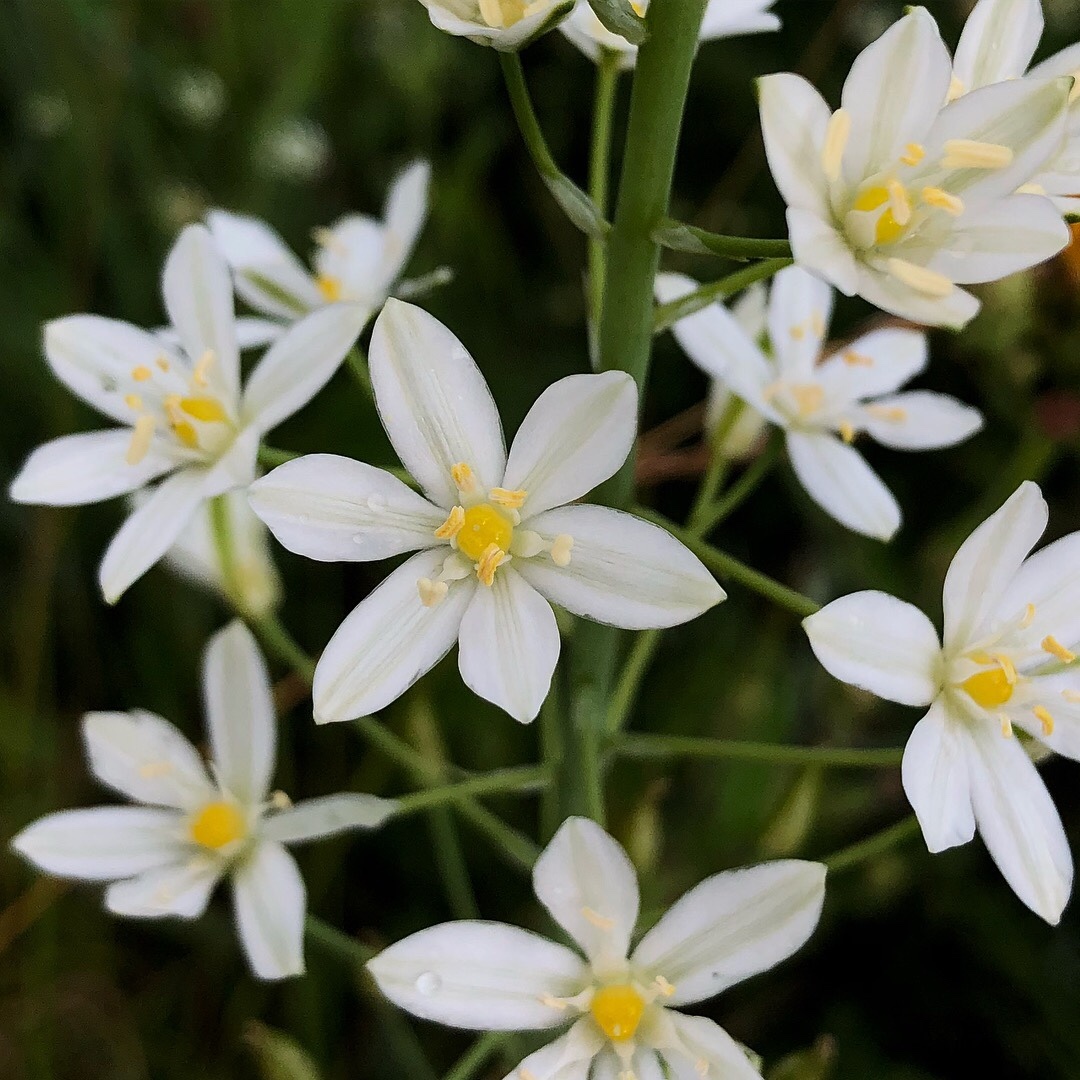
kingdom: Plantae
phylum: Tracheophyta
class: Liliopsida
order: Asparagales
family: Asparagaceae
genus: Ornithogalum
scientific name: Ornithogalum pyramidale
